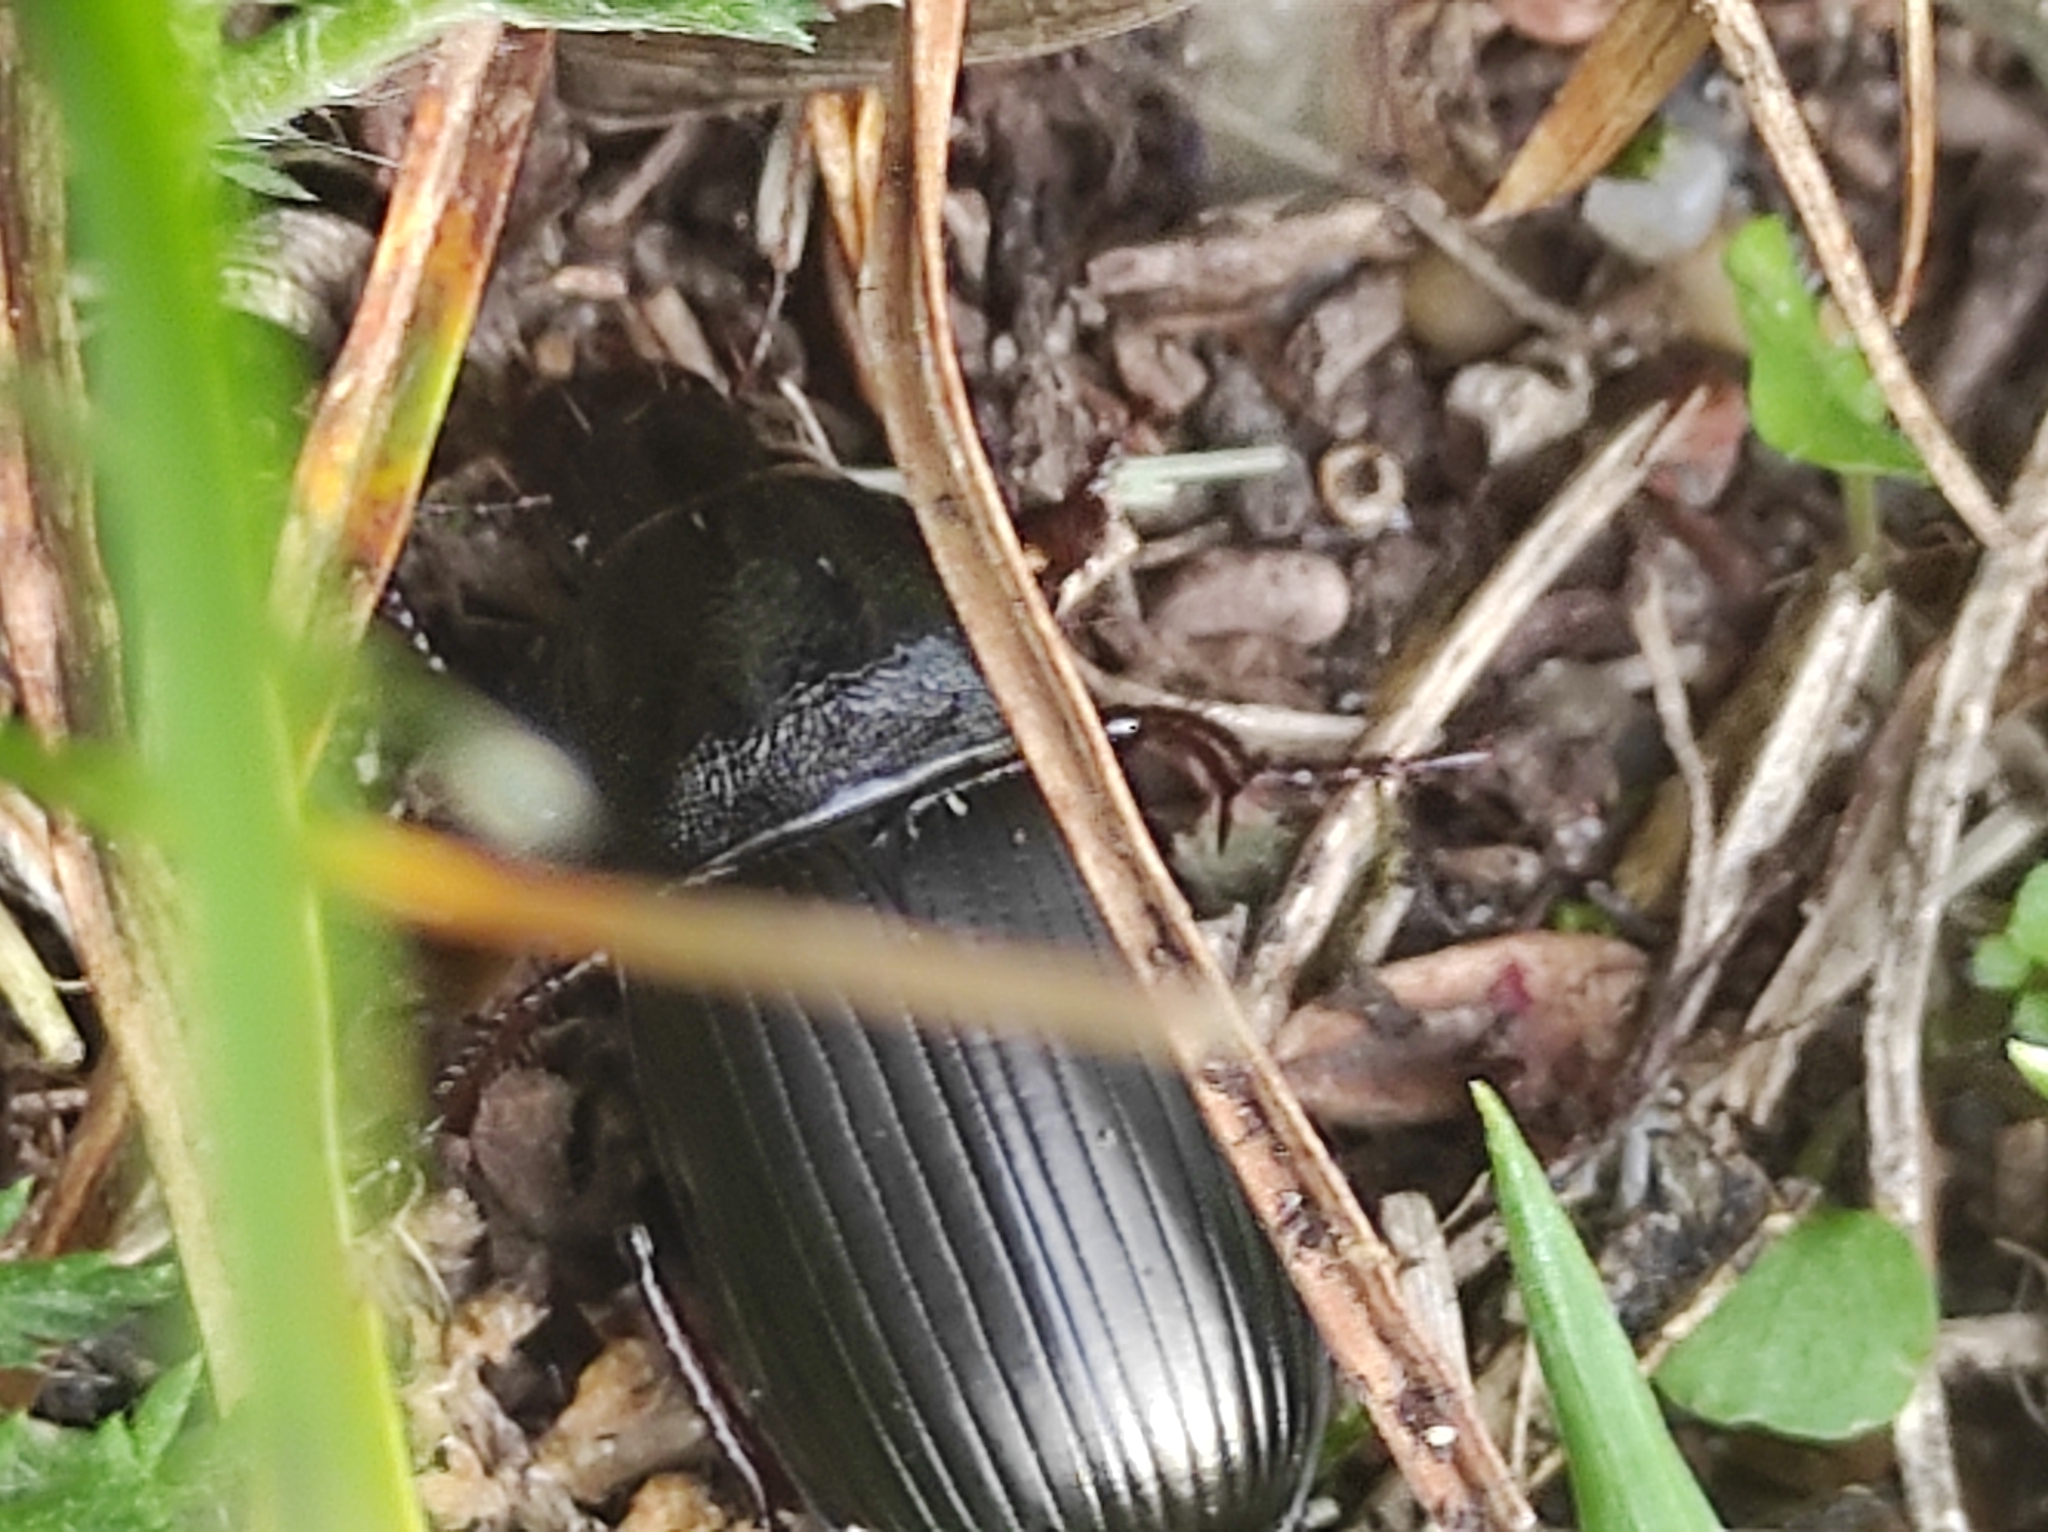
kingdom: Animalia
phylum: Arthropoda
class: Insecta
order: Coleoptera
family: Carabidae
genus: Zabrus
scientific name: Zabrus tenebrioides
